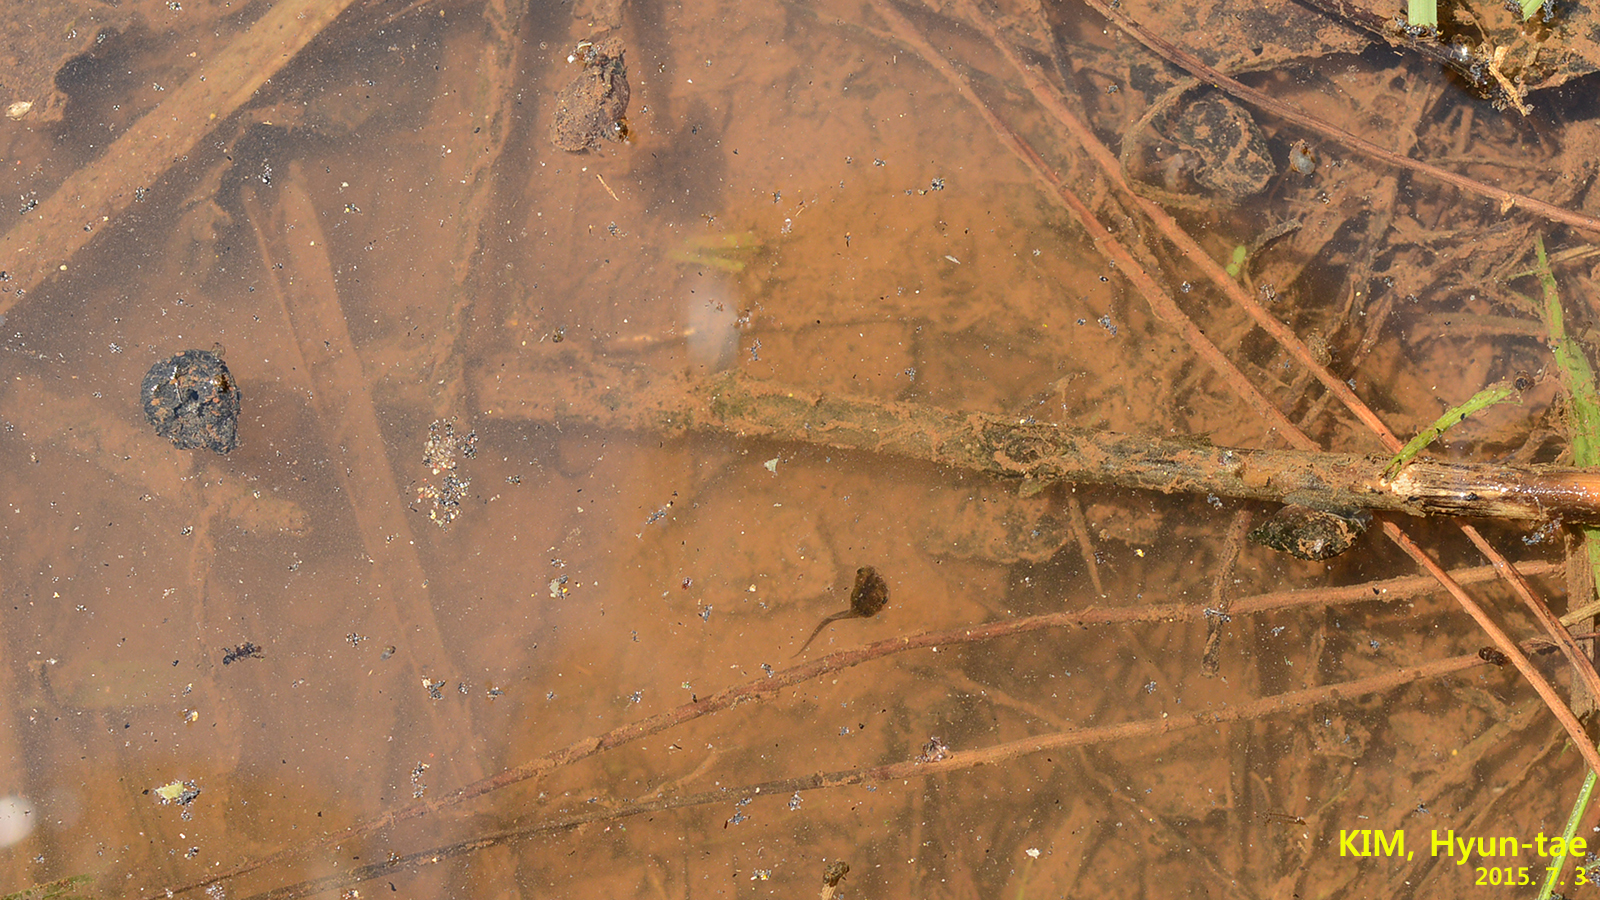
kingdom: Animalia
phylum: Chordata
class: Amphibia
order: Anura
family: Microhylidae
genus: Kaloula
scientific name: Kaloula borealis
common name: Boreal digging frog
